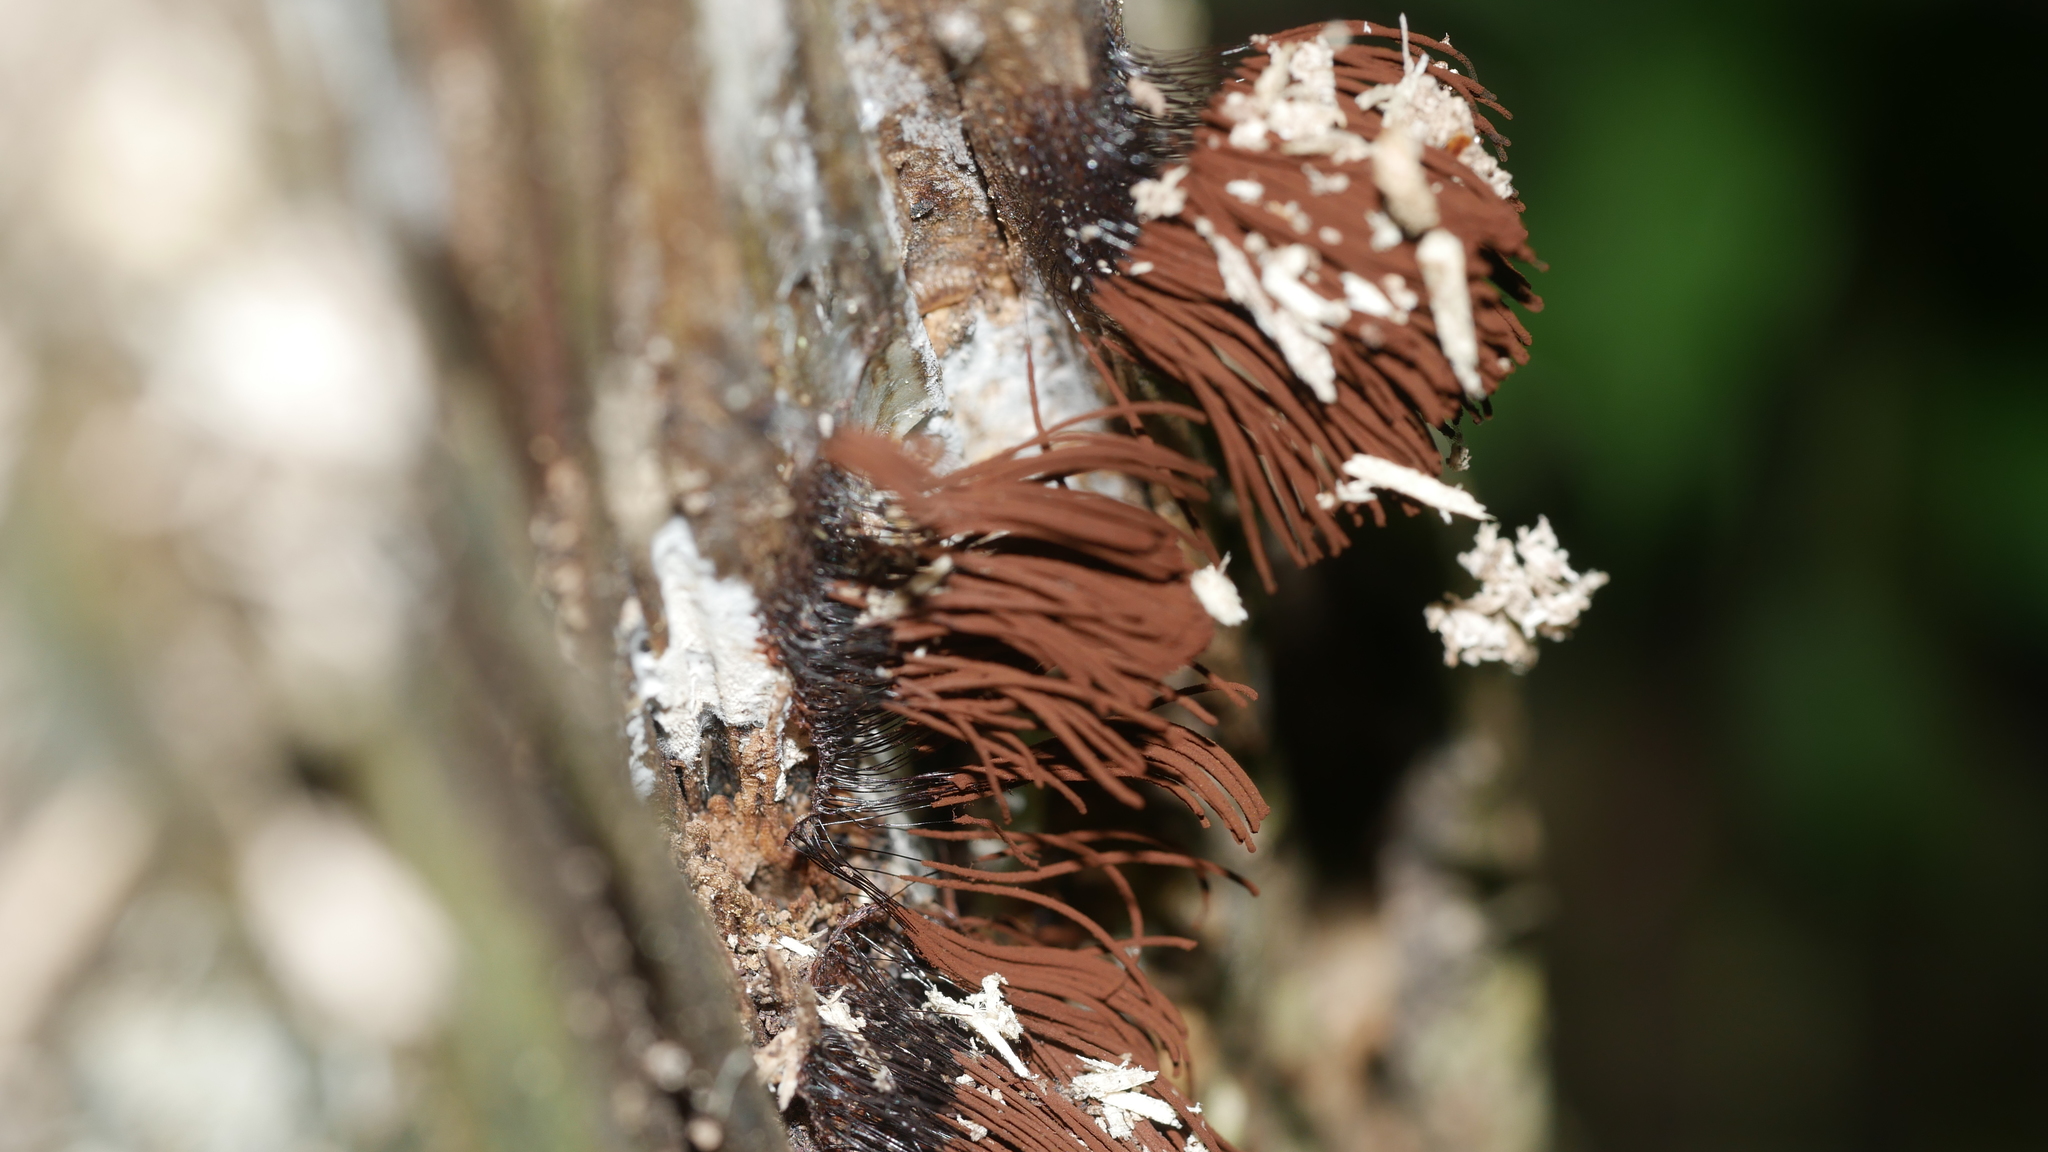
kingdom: Protozoa
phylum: Mycetozoa
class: Myxomycetes
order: Stemonitidales
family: Stemonitidaceae
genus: Stemonitis
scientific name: Stemonitis splendens
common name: Chocolate tube slime
